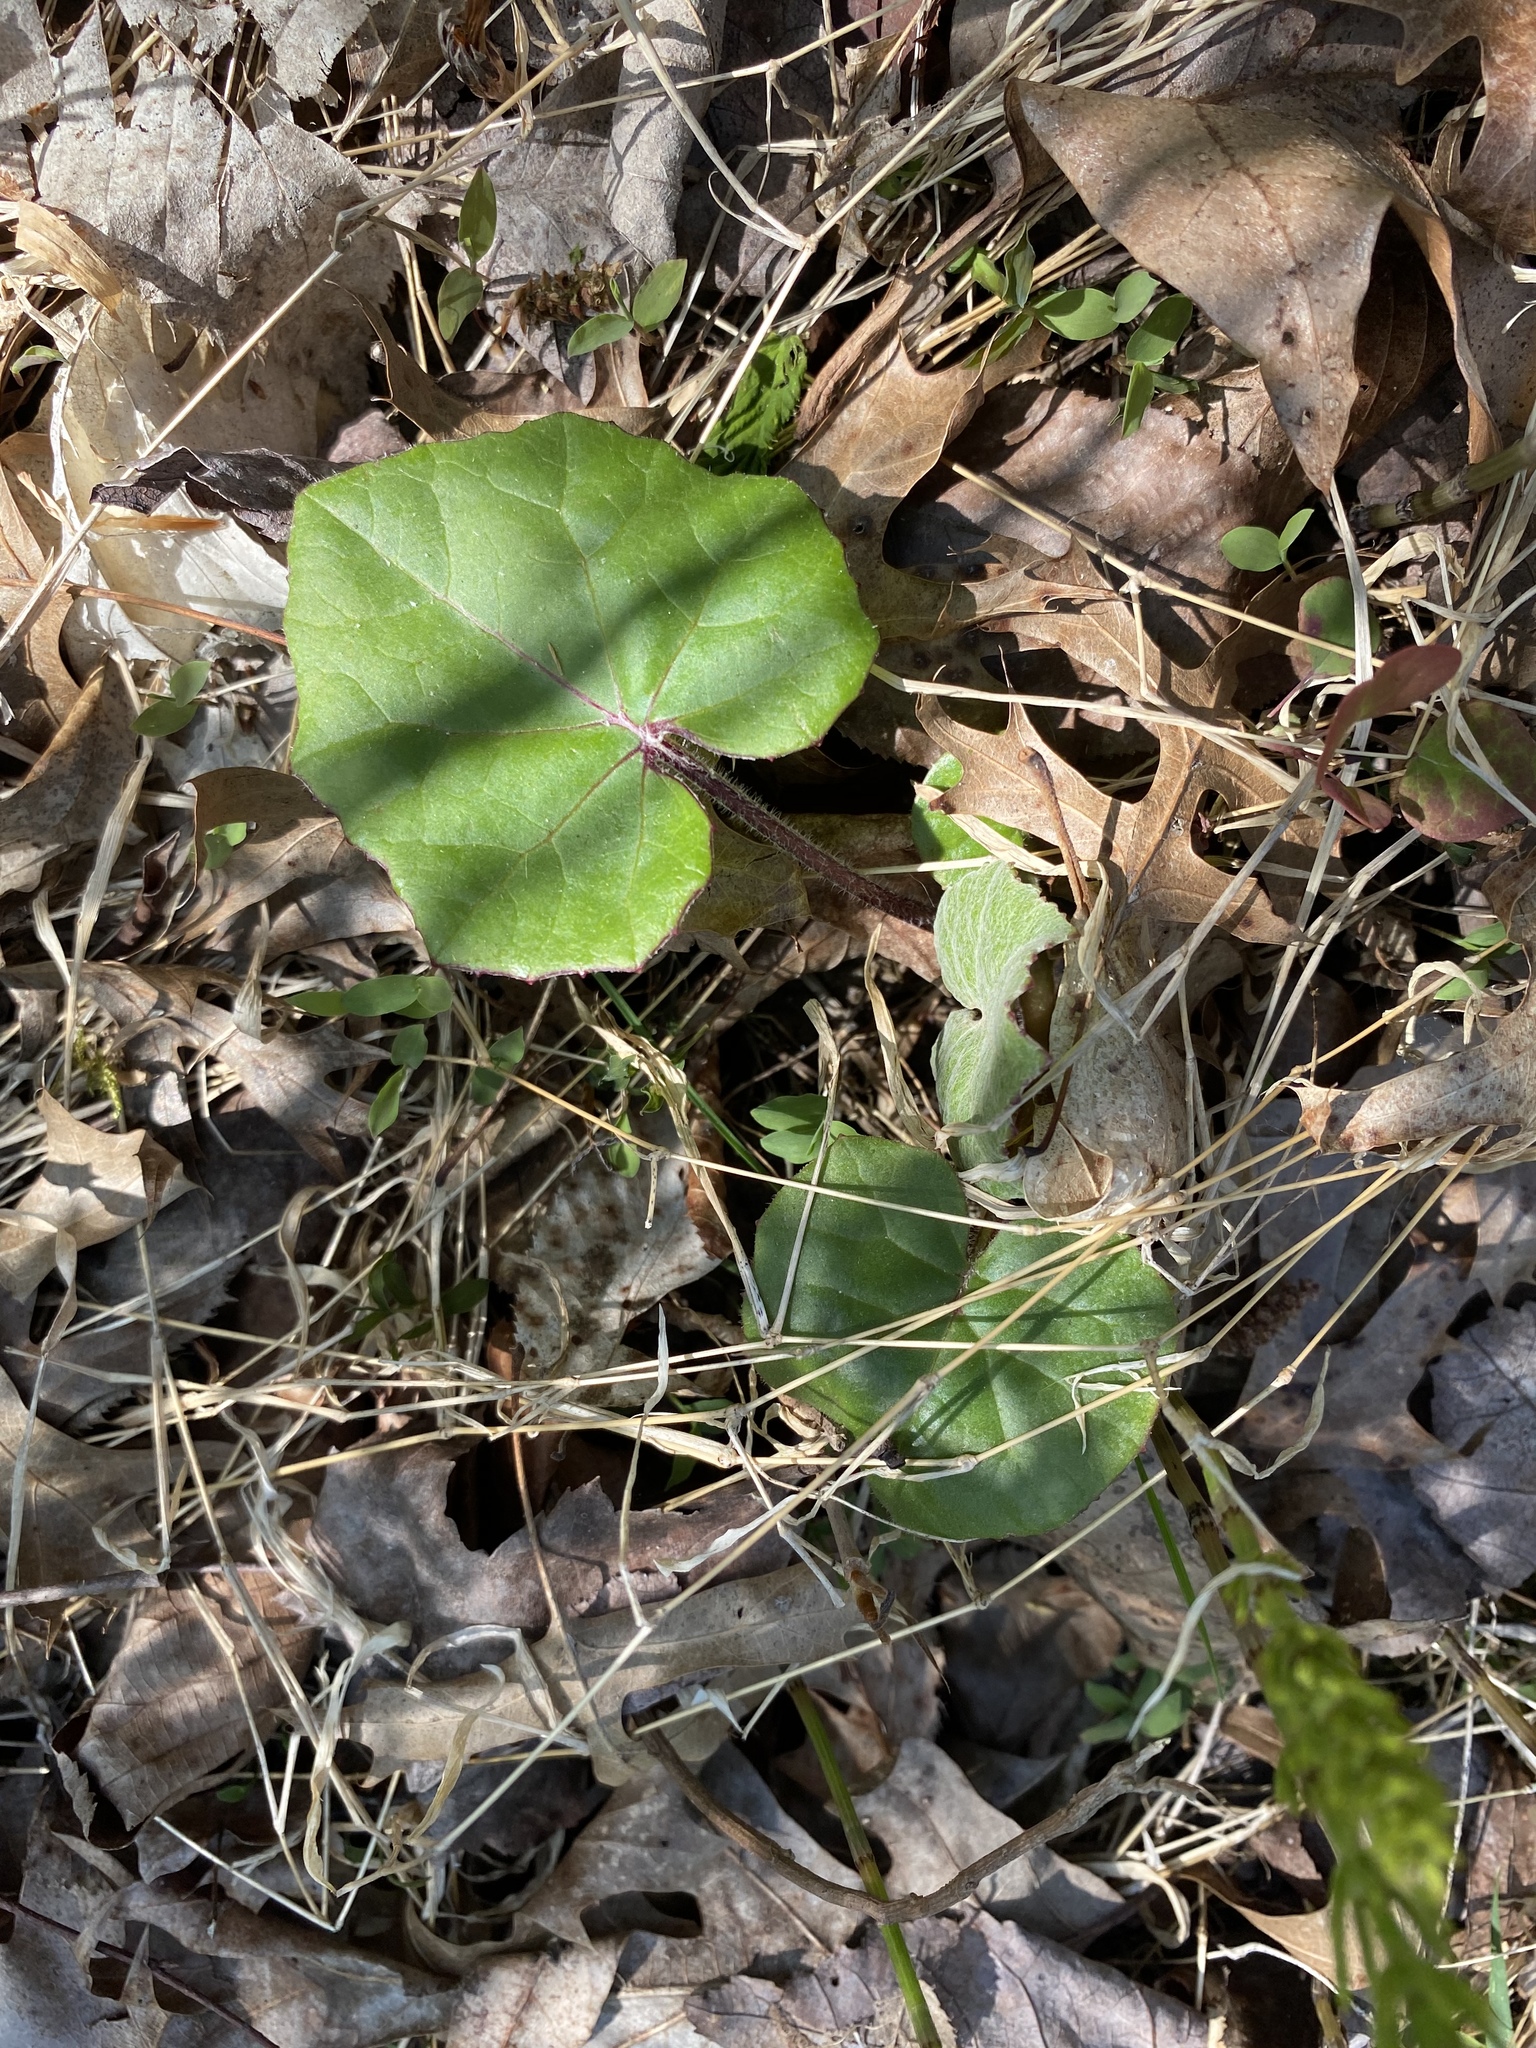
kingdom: Plantae
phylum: Tracheophyta
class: Magnoliopsida
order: Asterales
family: Asteraceae
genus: Tussilago
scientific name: Tussilago farfara
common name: Coltsfoot
